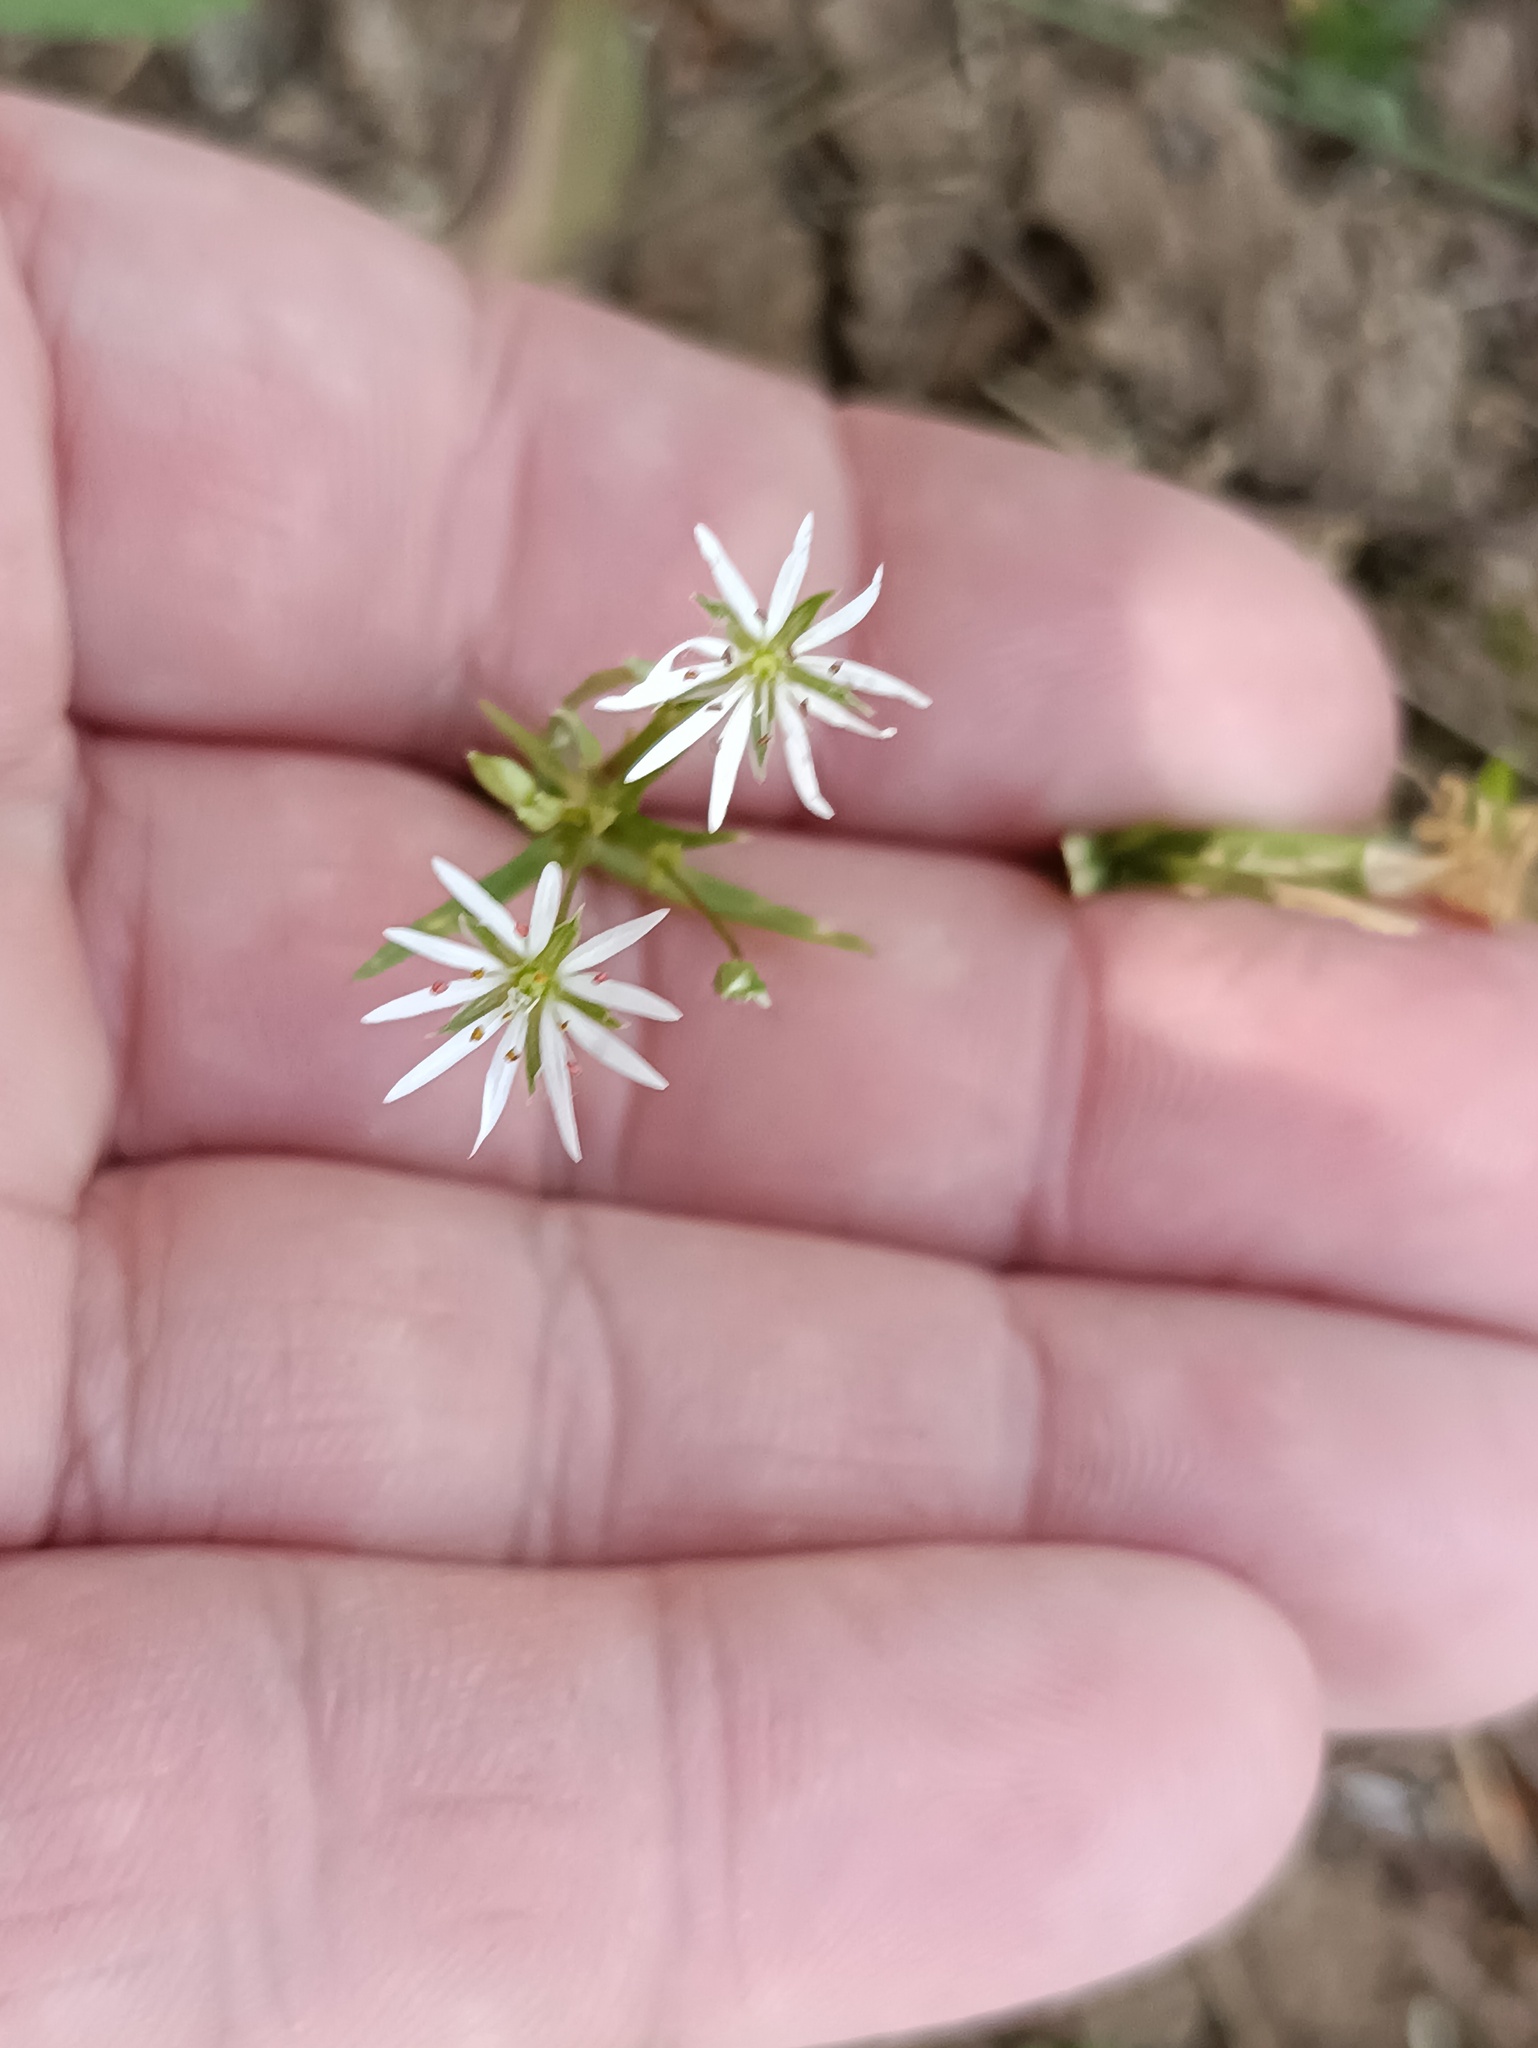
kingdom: Plantae
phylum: Tracheophyta
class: Magnoliopsida
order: Caryophyllales
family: Caryophyllaceae
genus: Stellaria
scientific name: Stellaria graminea
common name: Grass-like starwort
